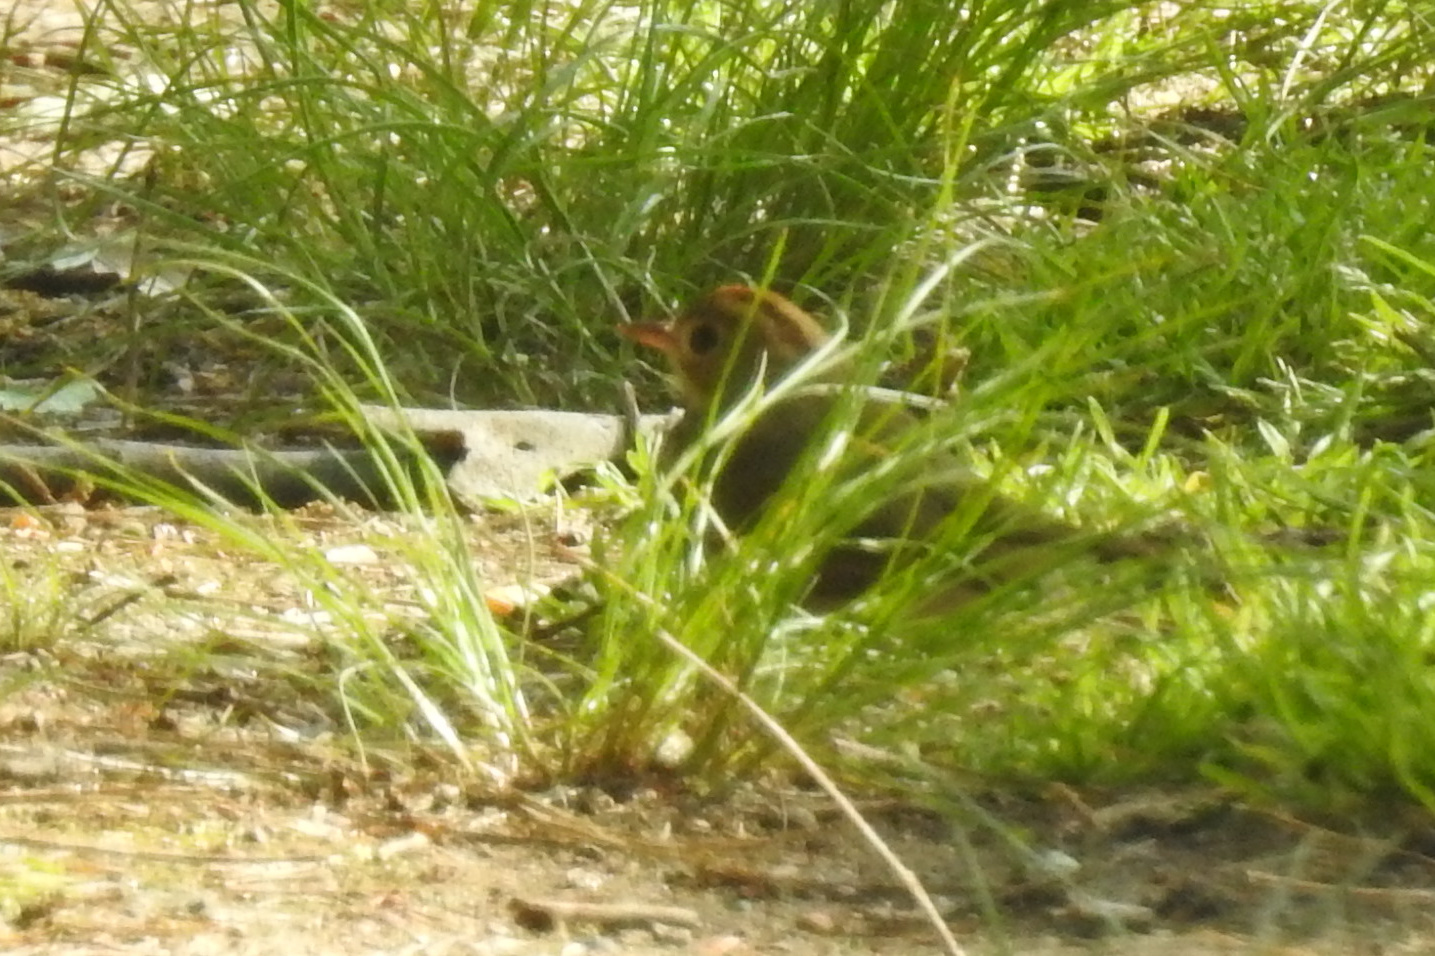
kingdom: Animalia
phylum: Chordata
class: Aves
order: Passeriformes
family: Parulidae
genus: Seiurus
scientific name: Seiurus aurocapilla
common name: Ovenbird
